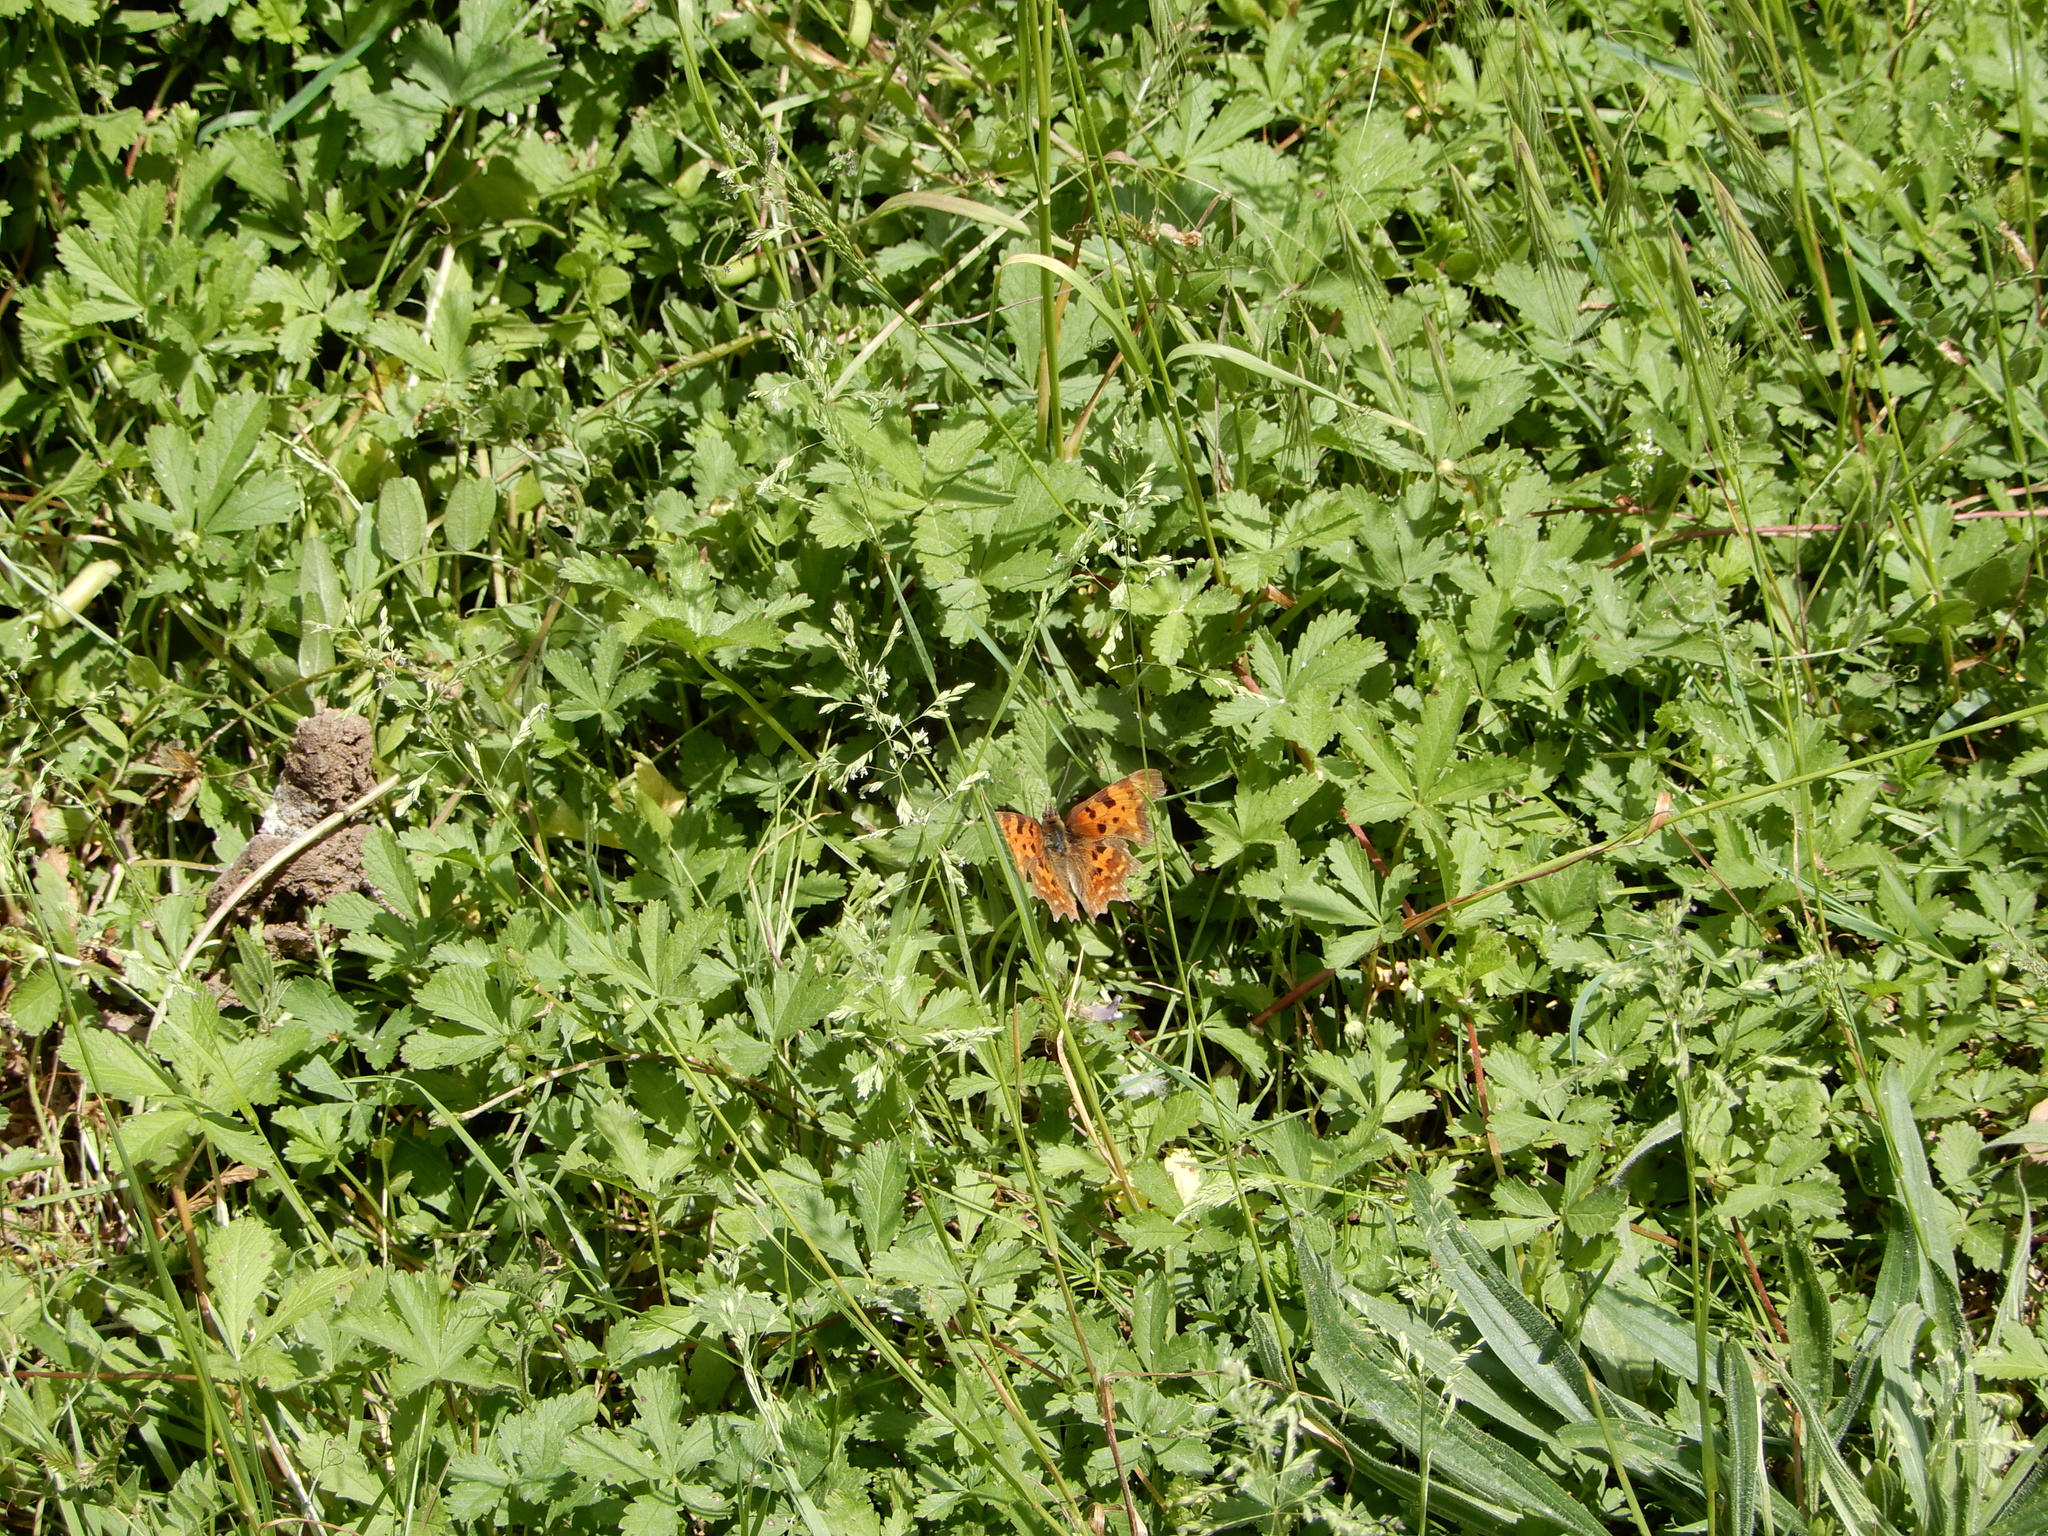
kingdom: Animalia
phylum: Arthropoda
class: Insecta
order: Lepidoptera
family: Nymphalidae
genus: Polygonia
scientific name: Polygonia c-album
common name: Comma
